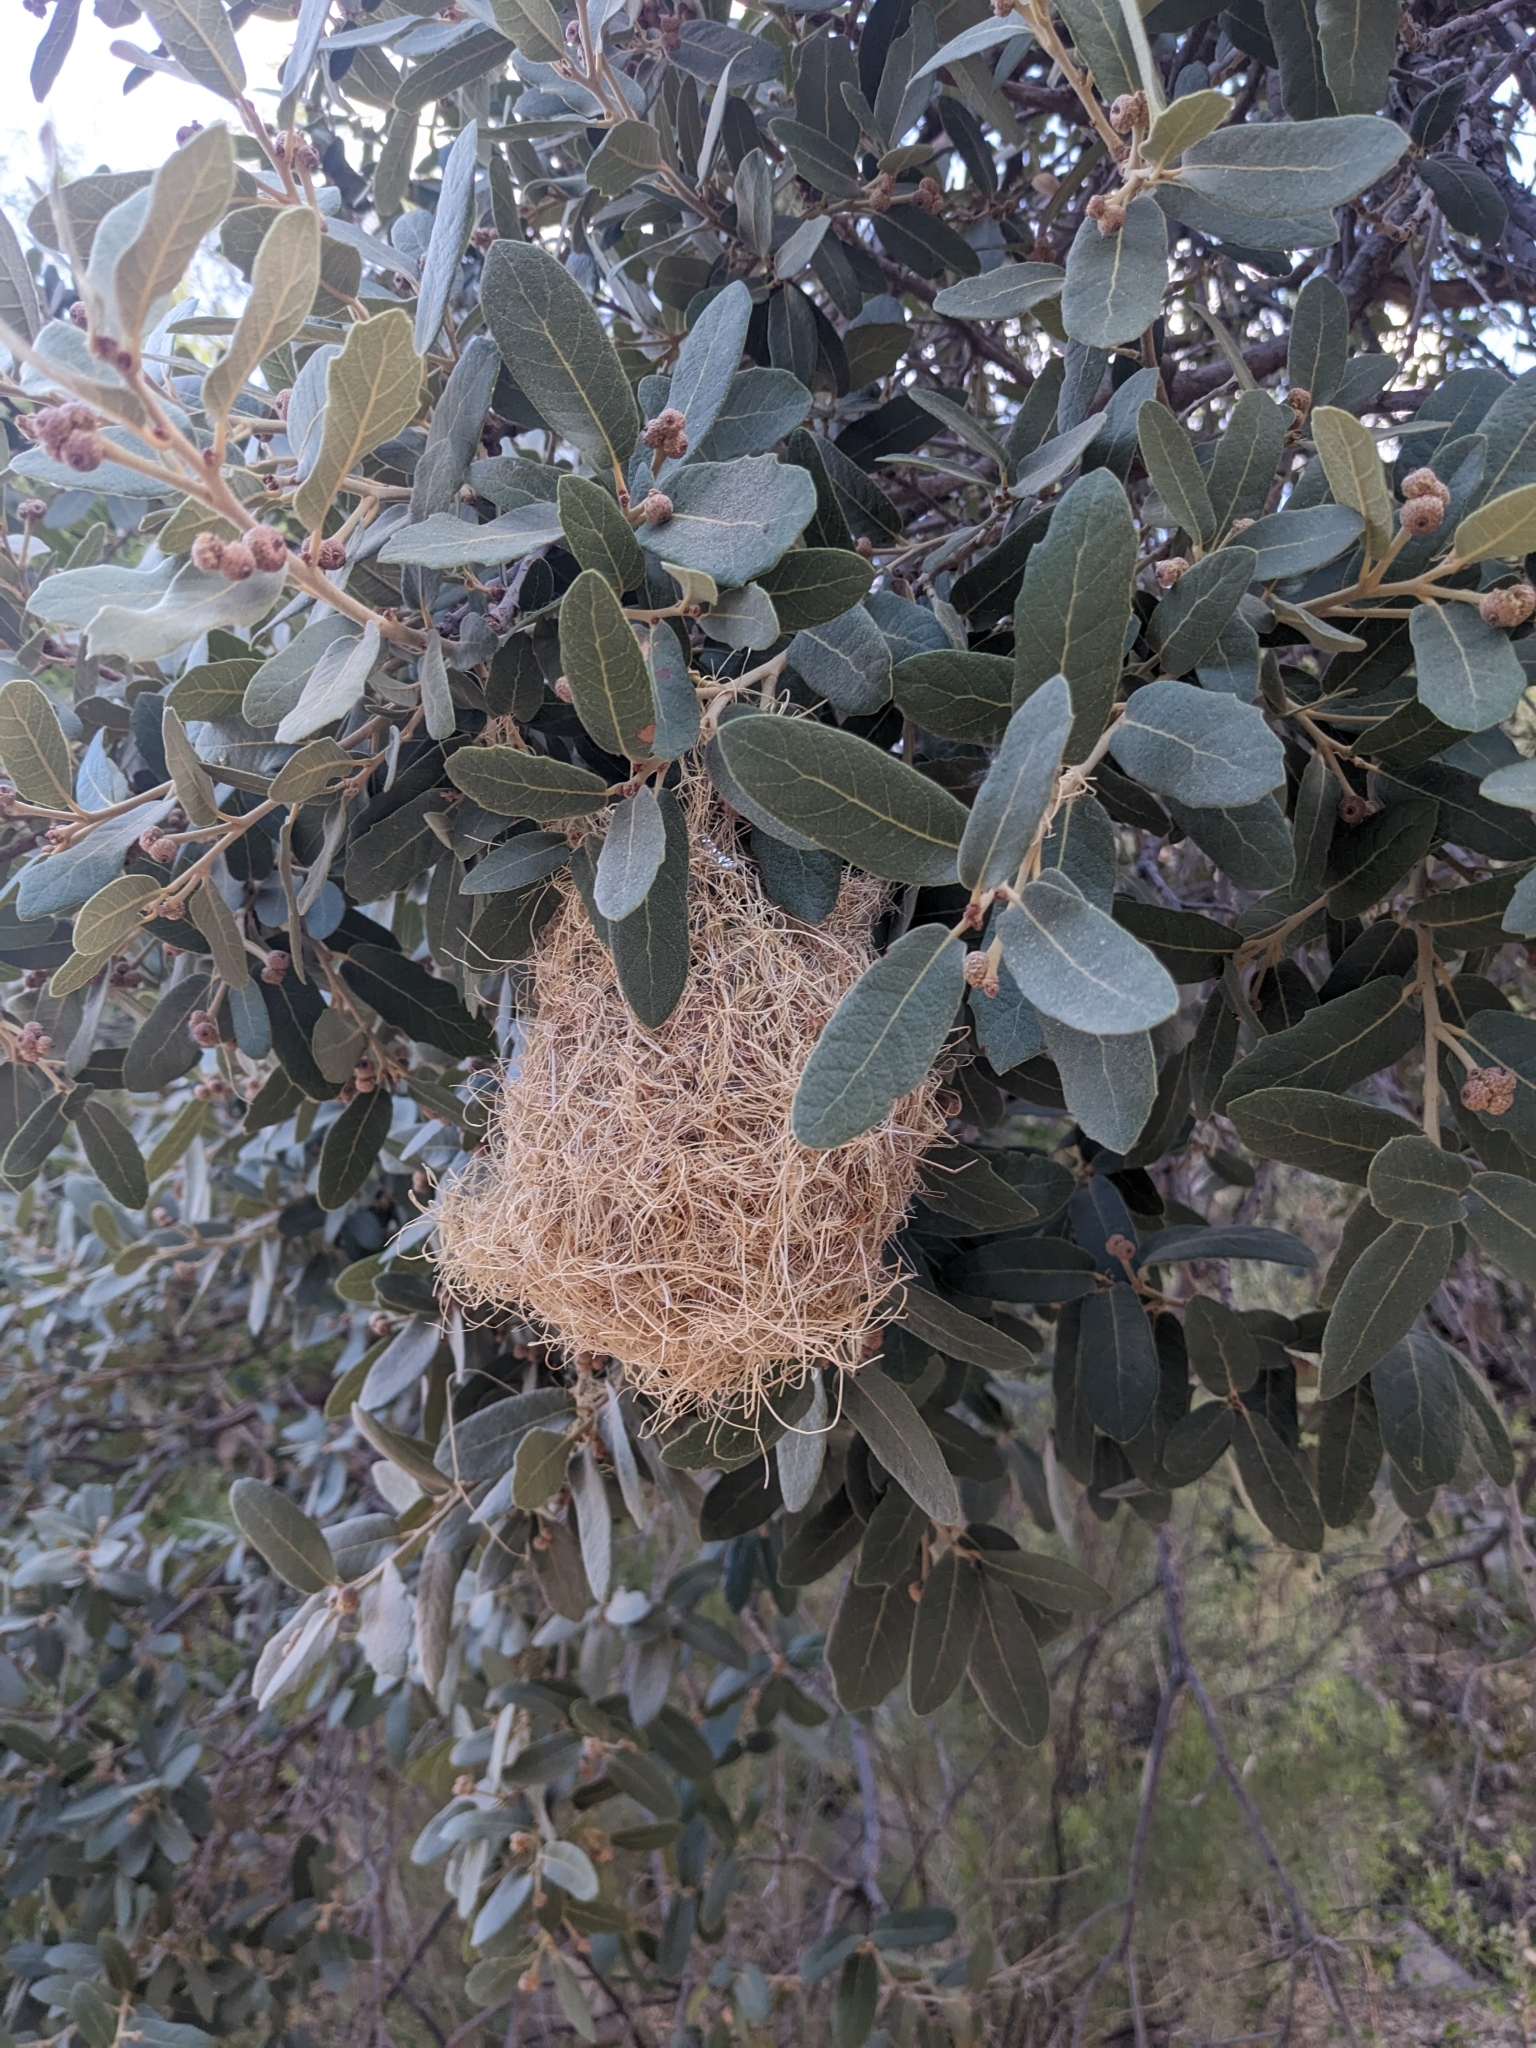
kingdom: Animalia
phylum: Chordata
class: Aves
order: Passeriformes
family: Icteridae
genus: Icterus
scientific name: Icterus cucullatus
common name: Hooded oriole
